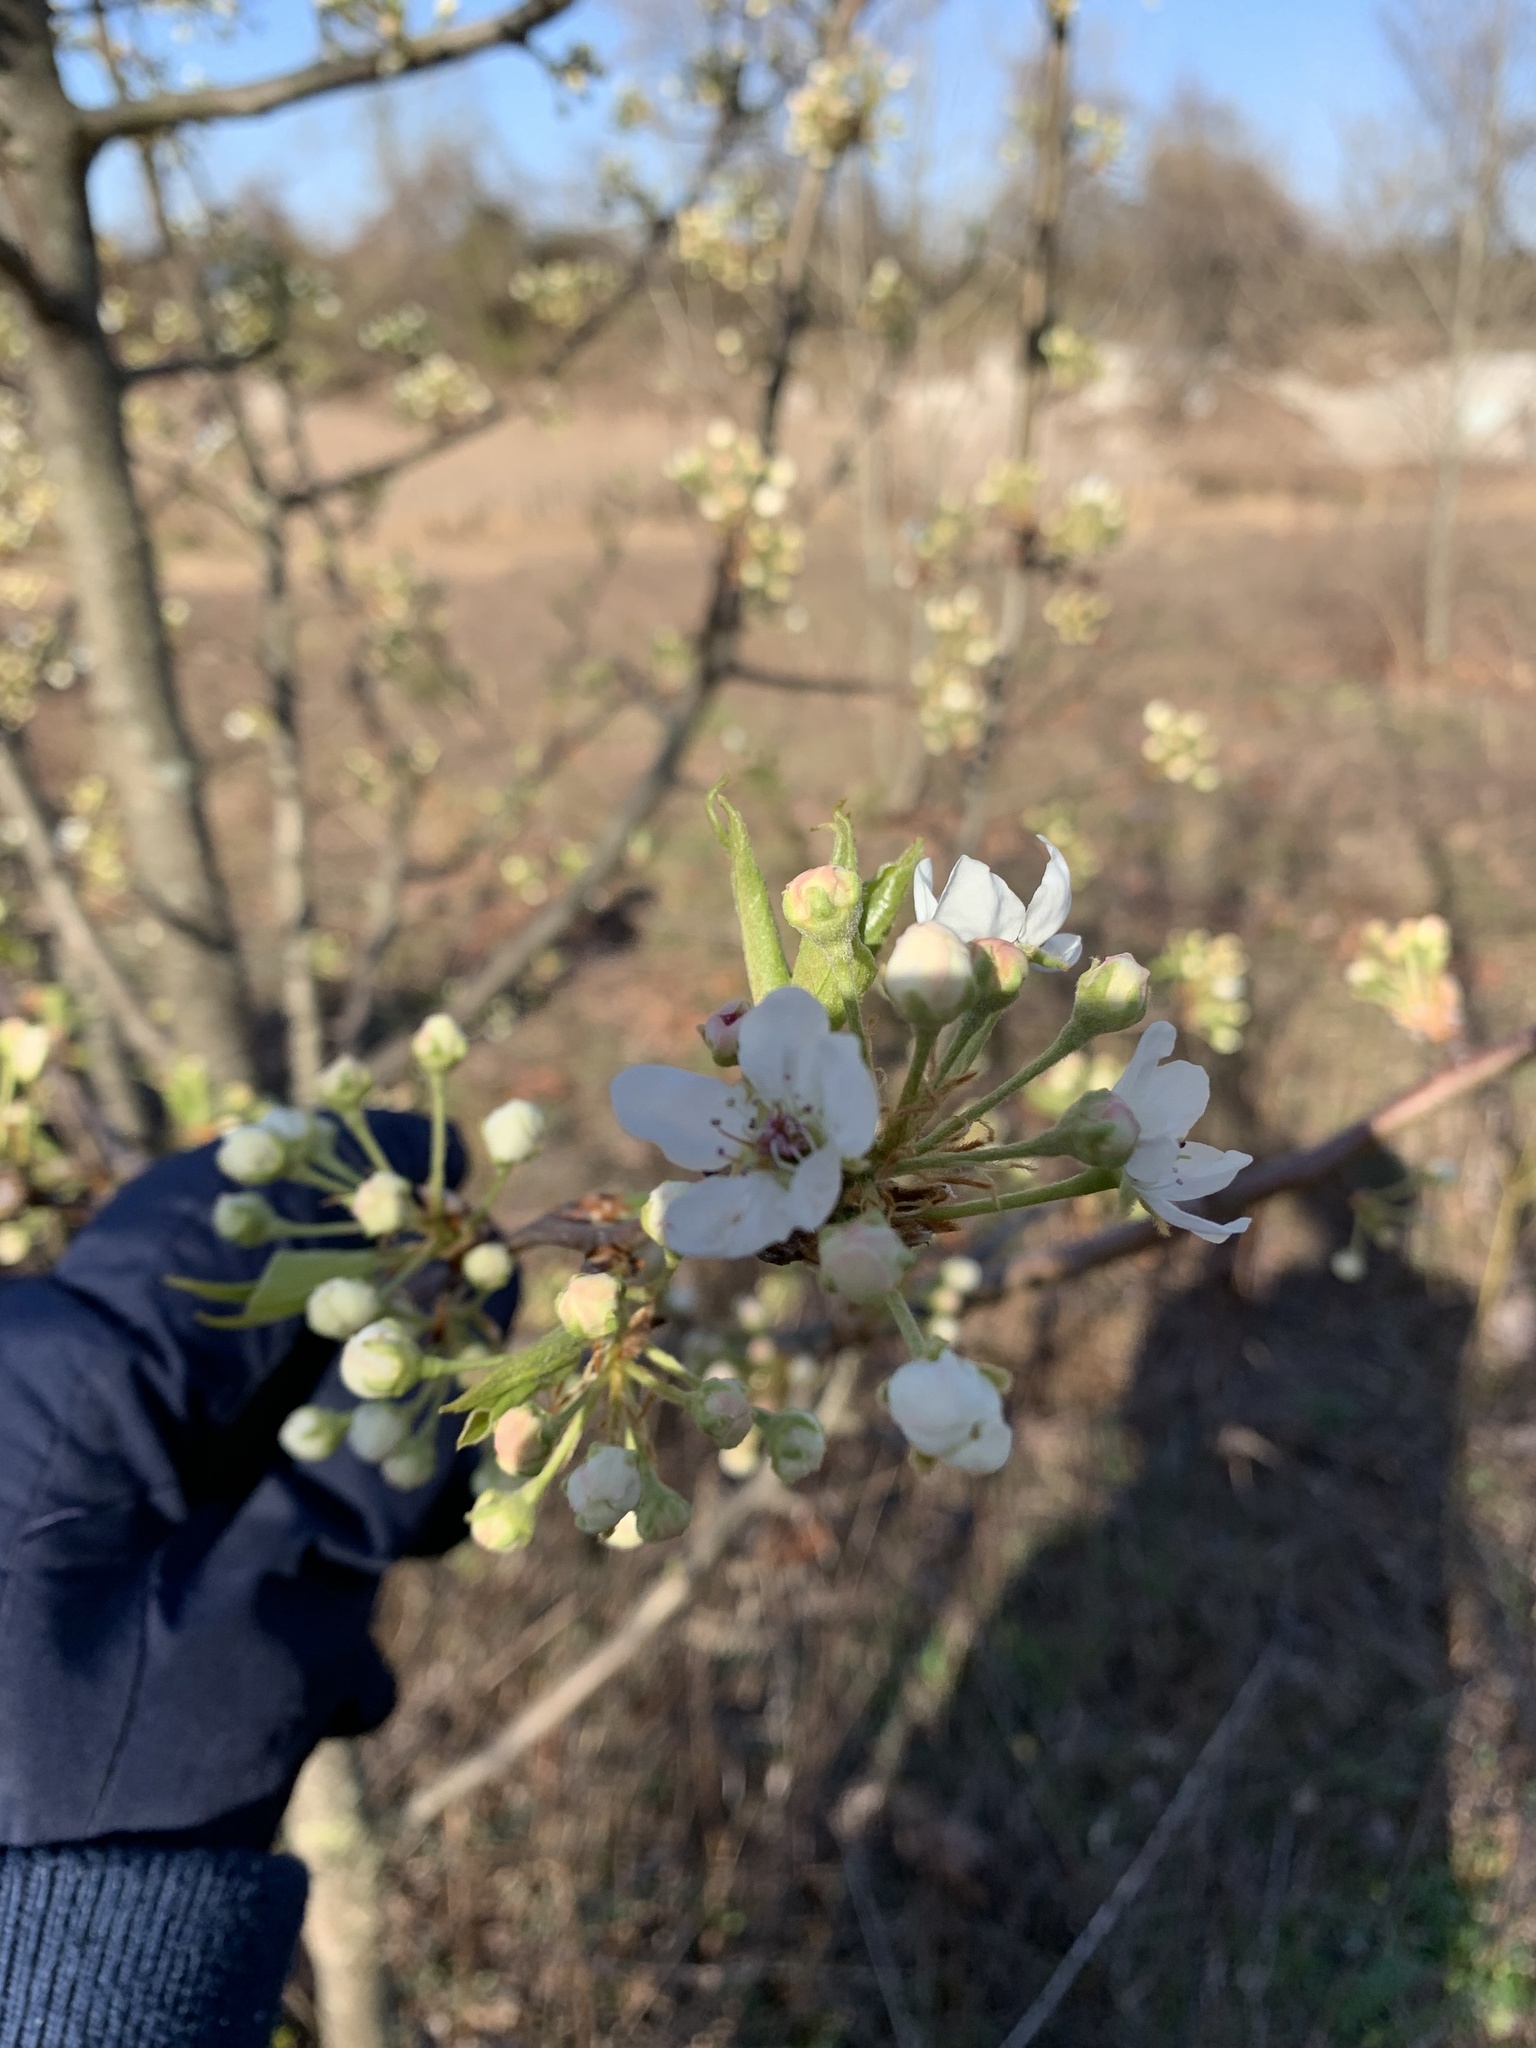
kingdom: Plantae
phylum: Tracheophyta
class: Magnoliopsida
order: Rosales
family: Rosaceae
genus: Pyrus
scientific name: Pyrus calleryana
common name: Callery pear
